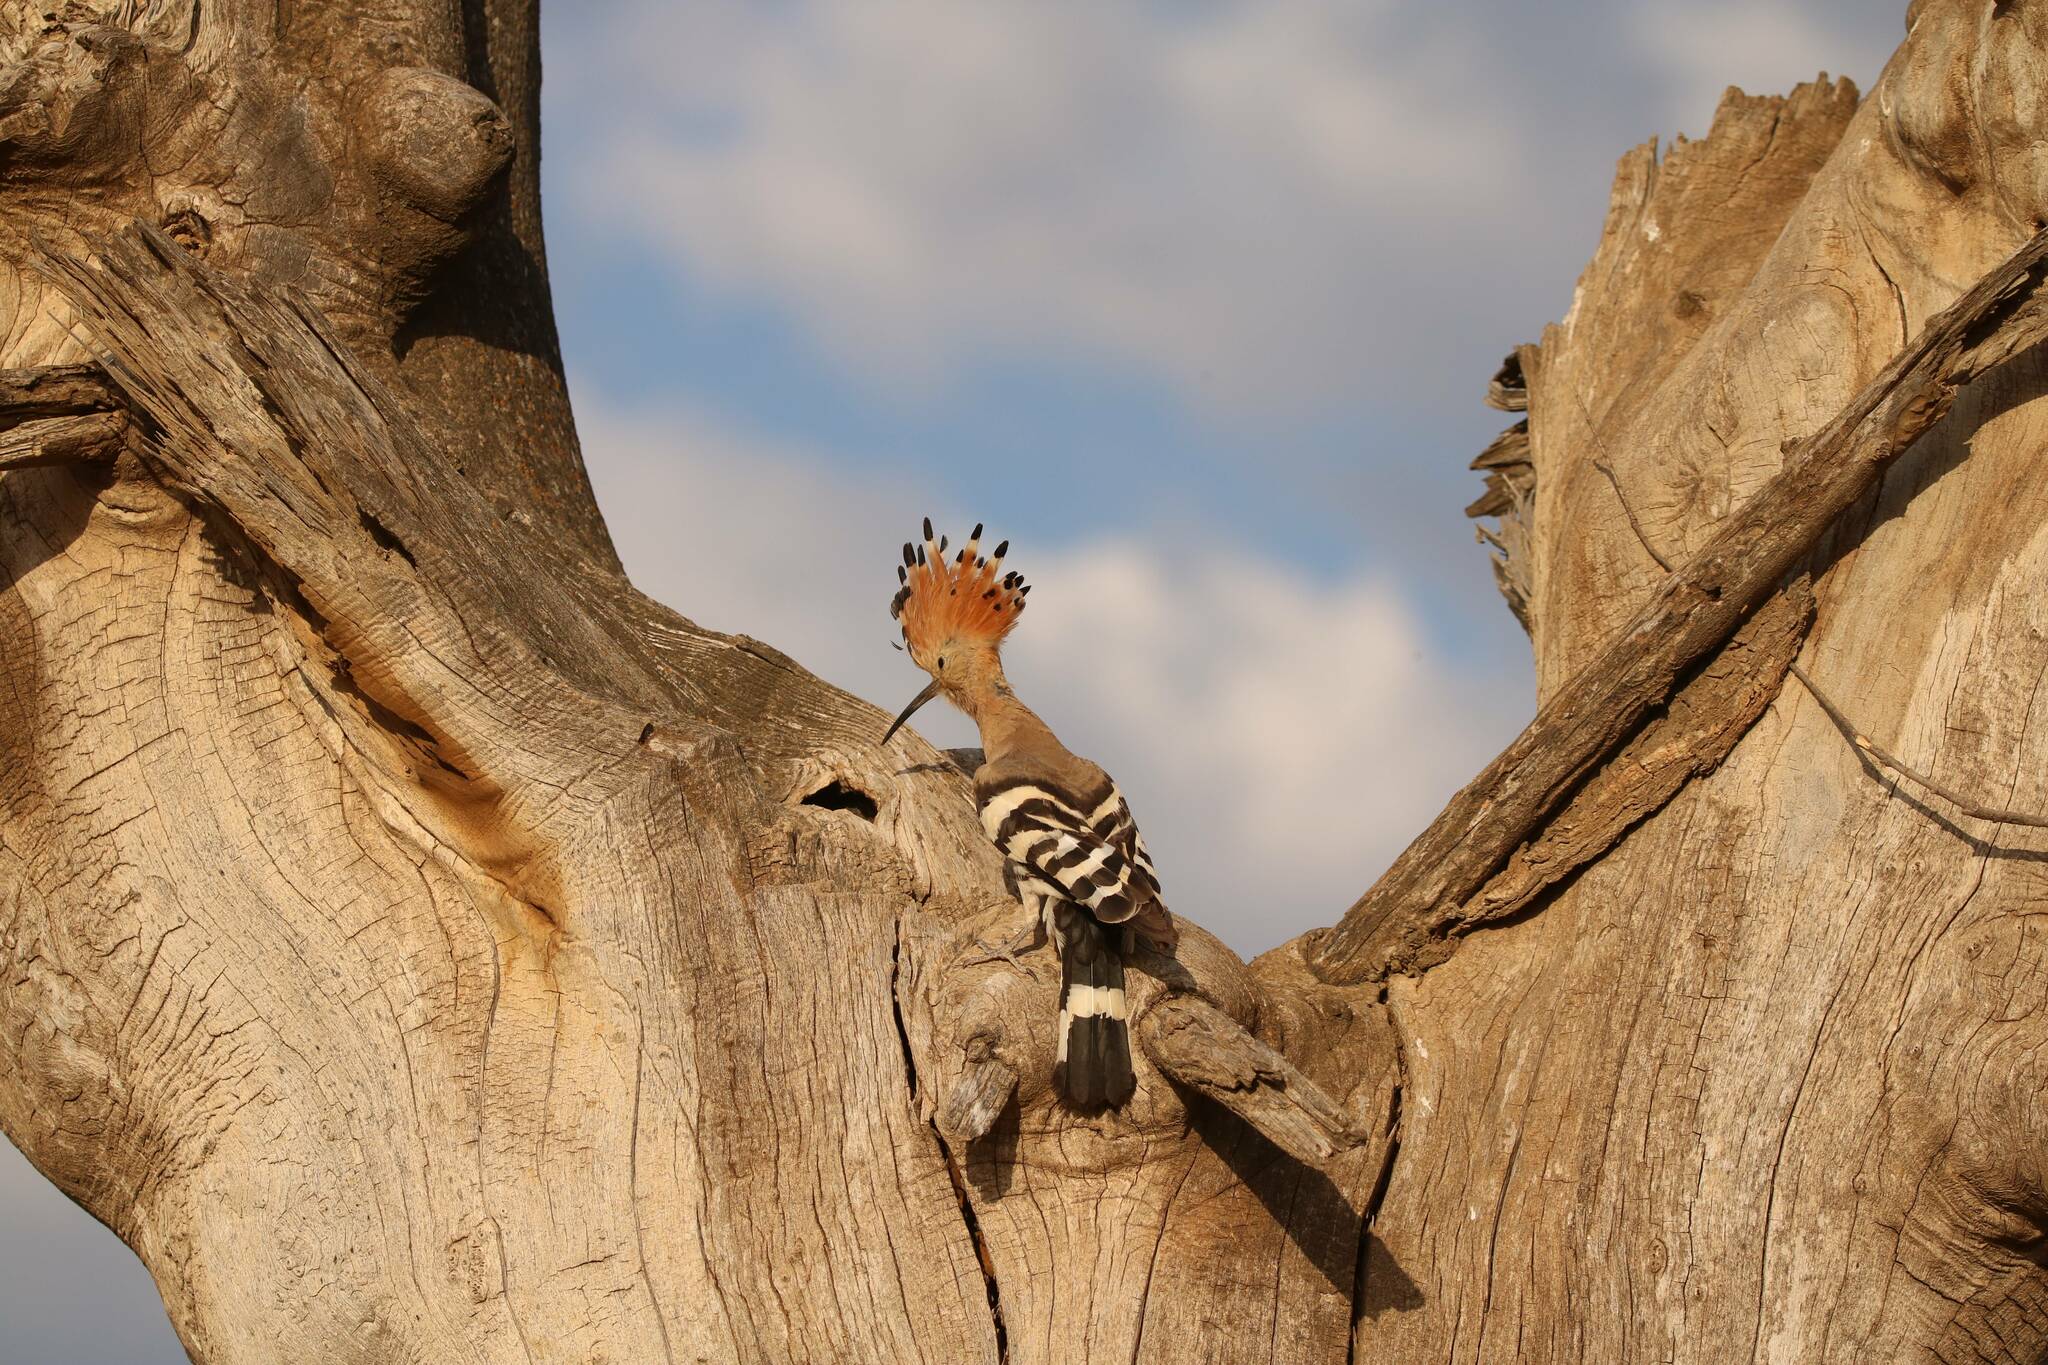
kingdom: Animalia
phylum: Chordata
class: Aves
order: Bucerotiformes
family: Upupidae
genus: Upupa
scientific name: Upupa epops
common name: Eurasian hoopoe
